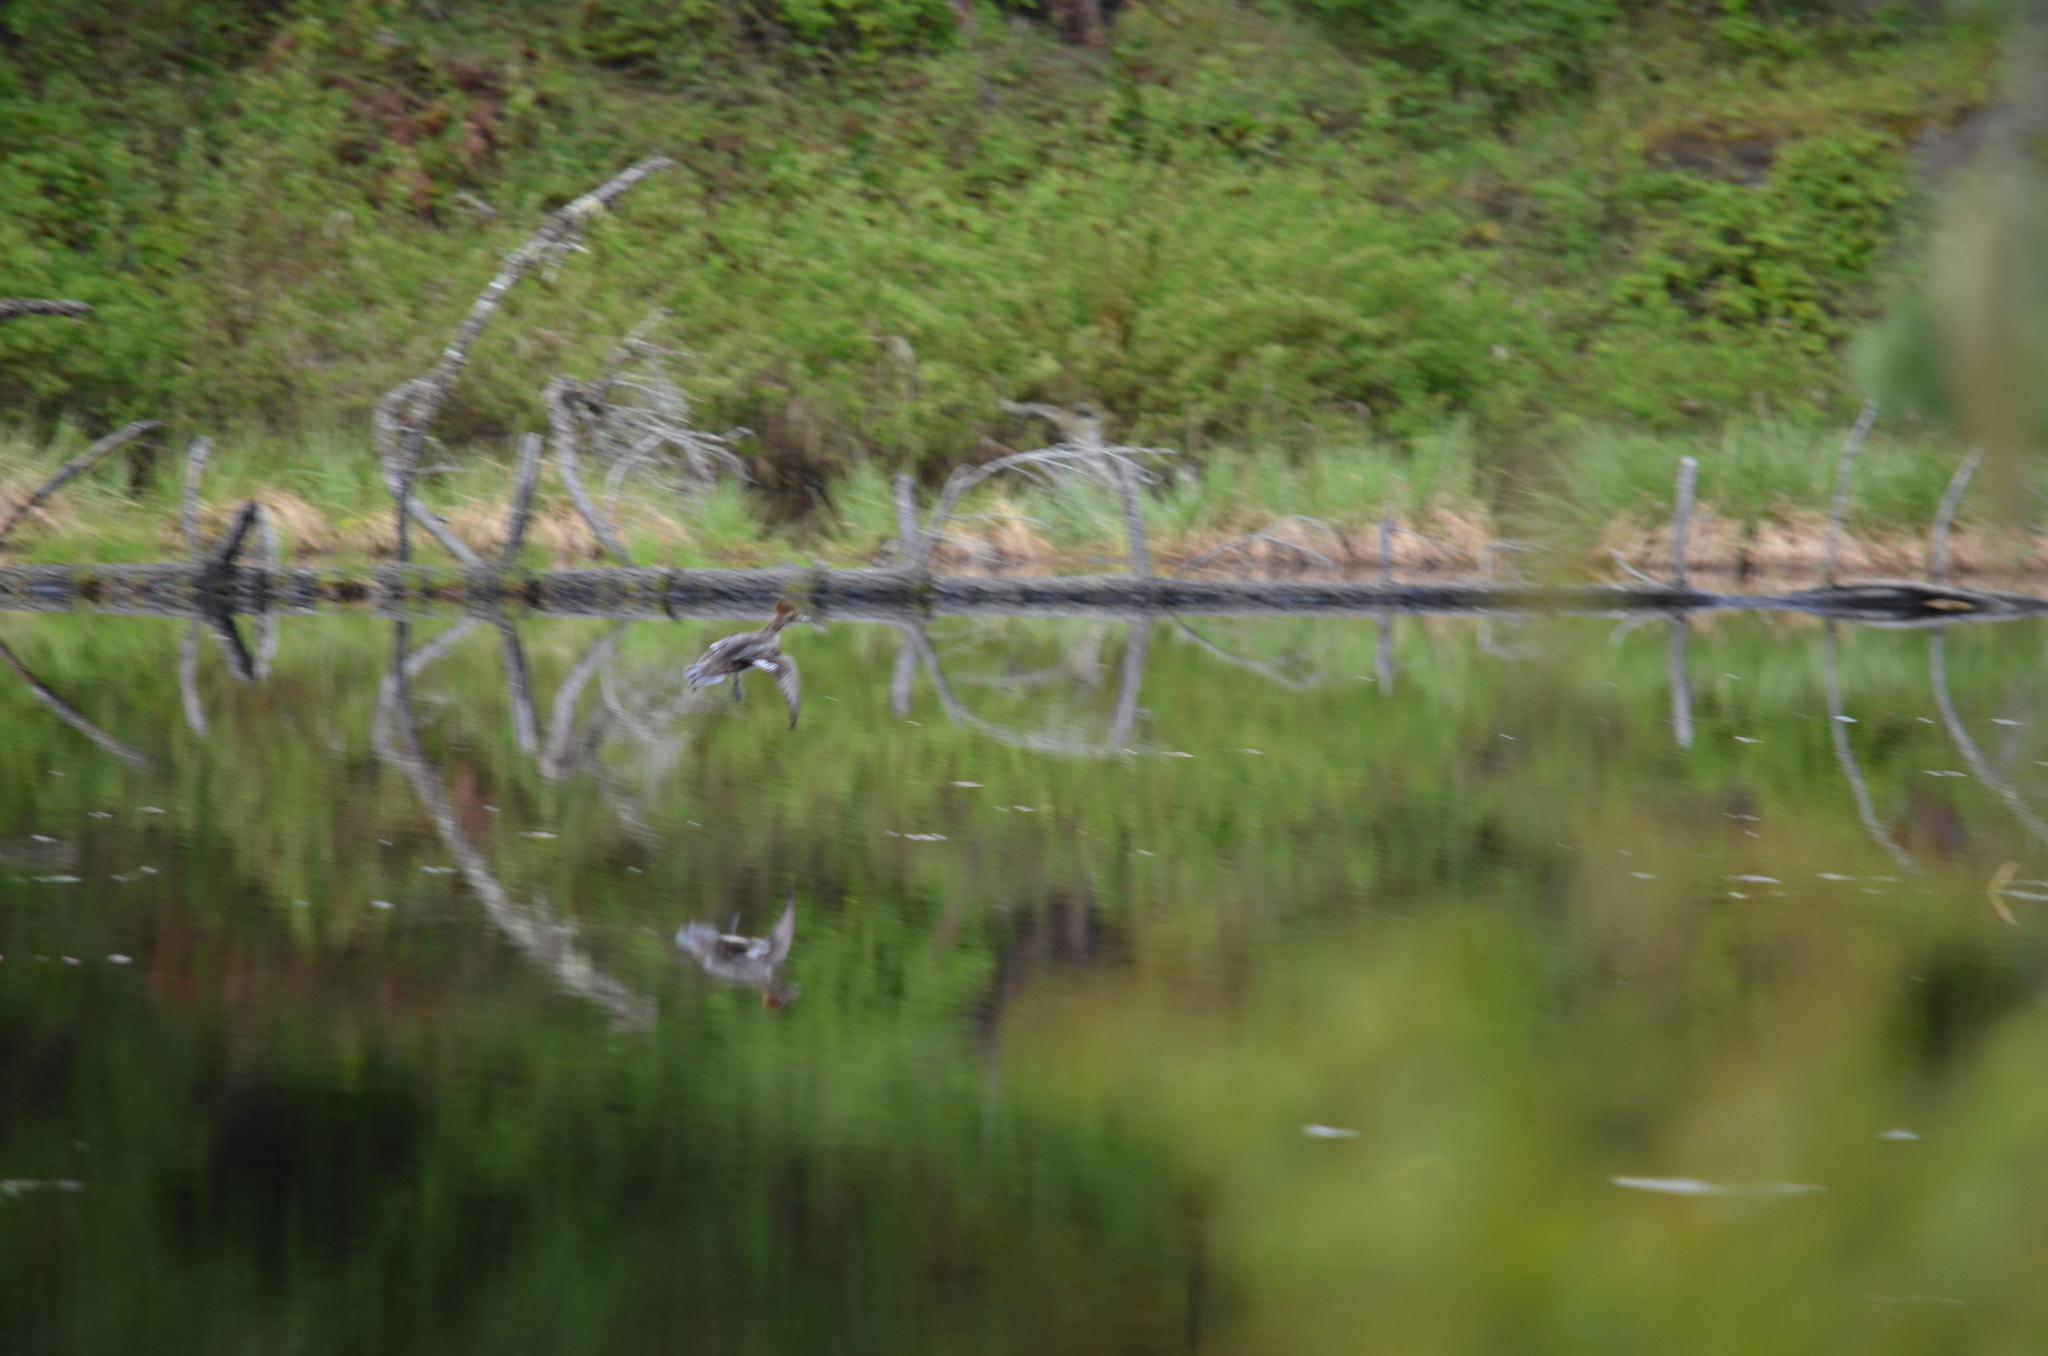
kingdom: Animalia
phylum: Chordata
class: Aves
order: Anseriformes
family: Anatidae
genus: Lophodytes
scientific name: Lophodytes cucullatus
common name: Hooded merganser
